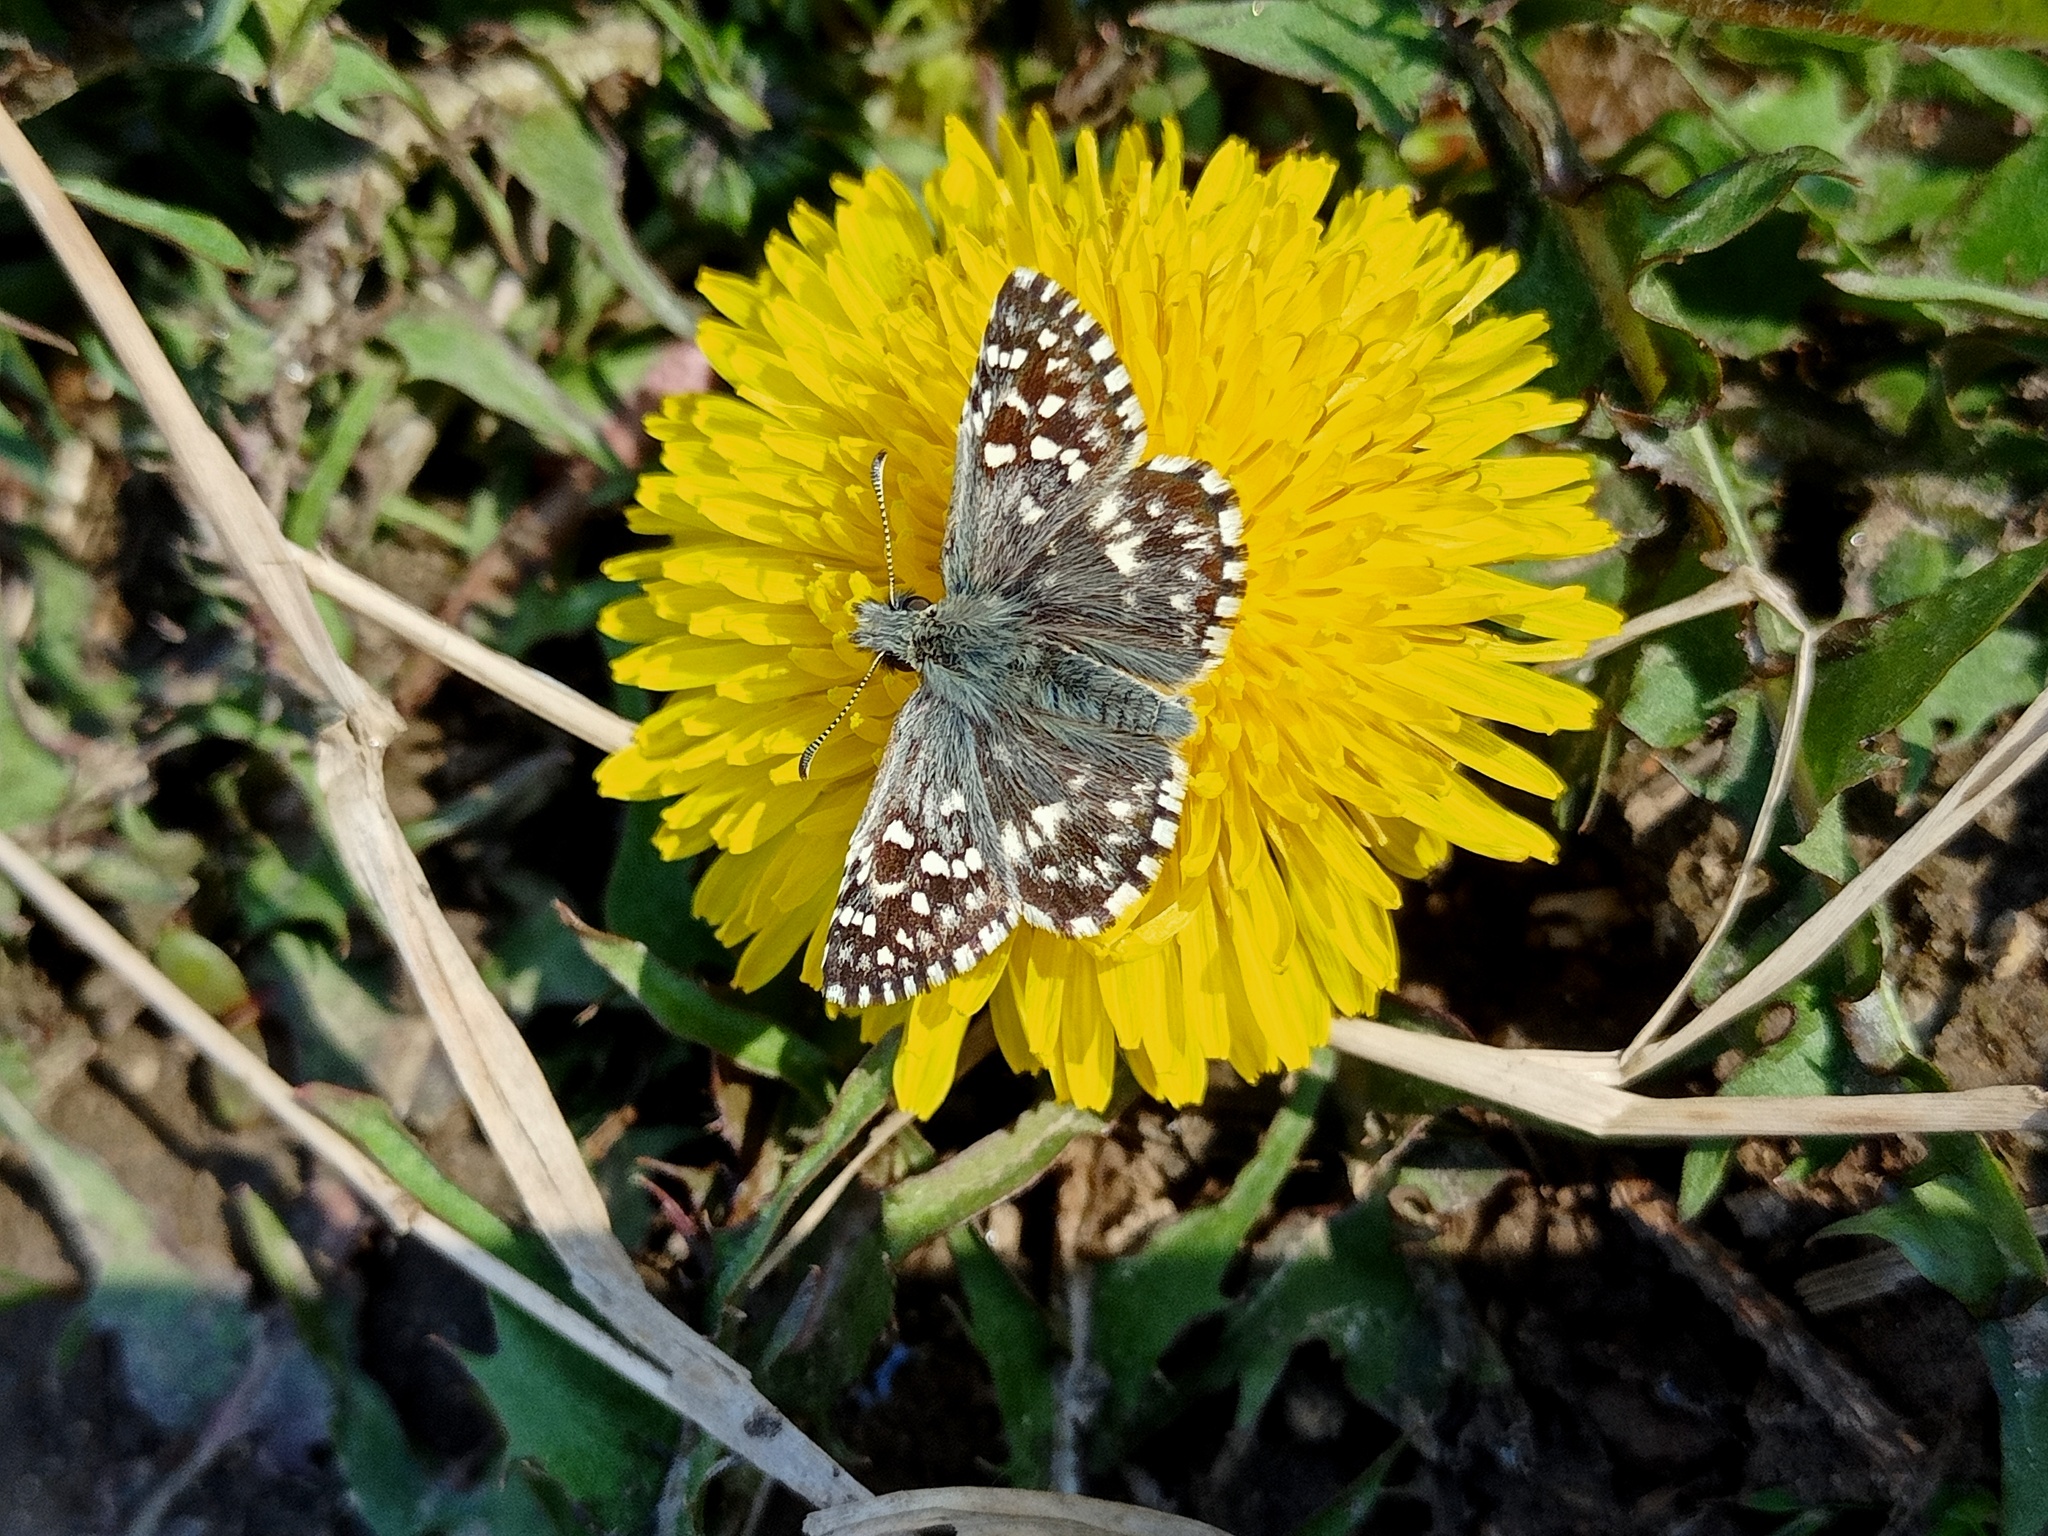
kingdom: Animalia
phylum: Arthropoda
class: Insecta
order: Lepidoptera
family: Hesperiidae
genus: Pyrgus
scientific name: Pyrgus malvae
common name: Grizzled skipper
